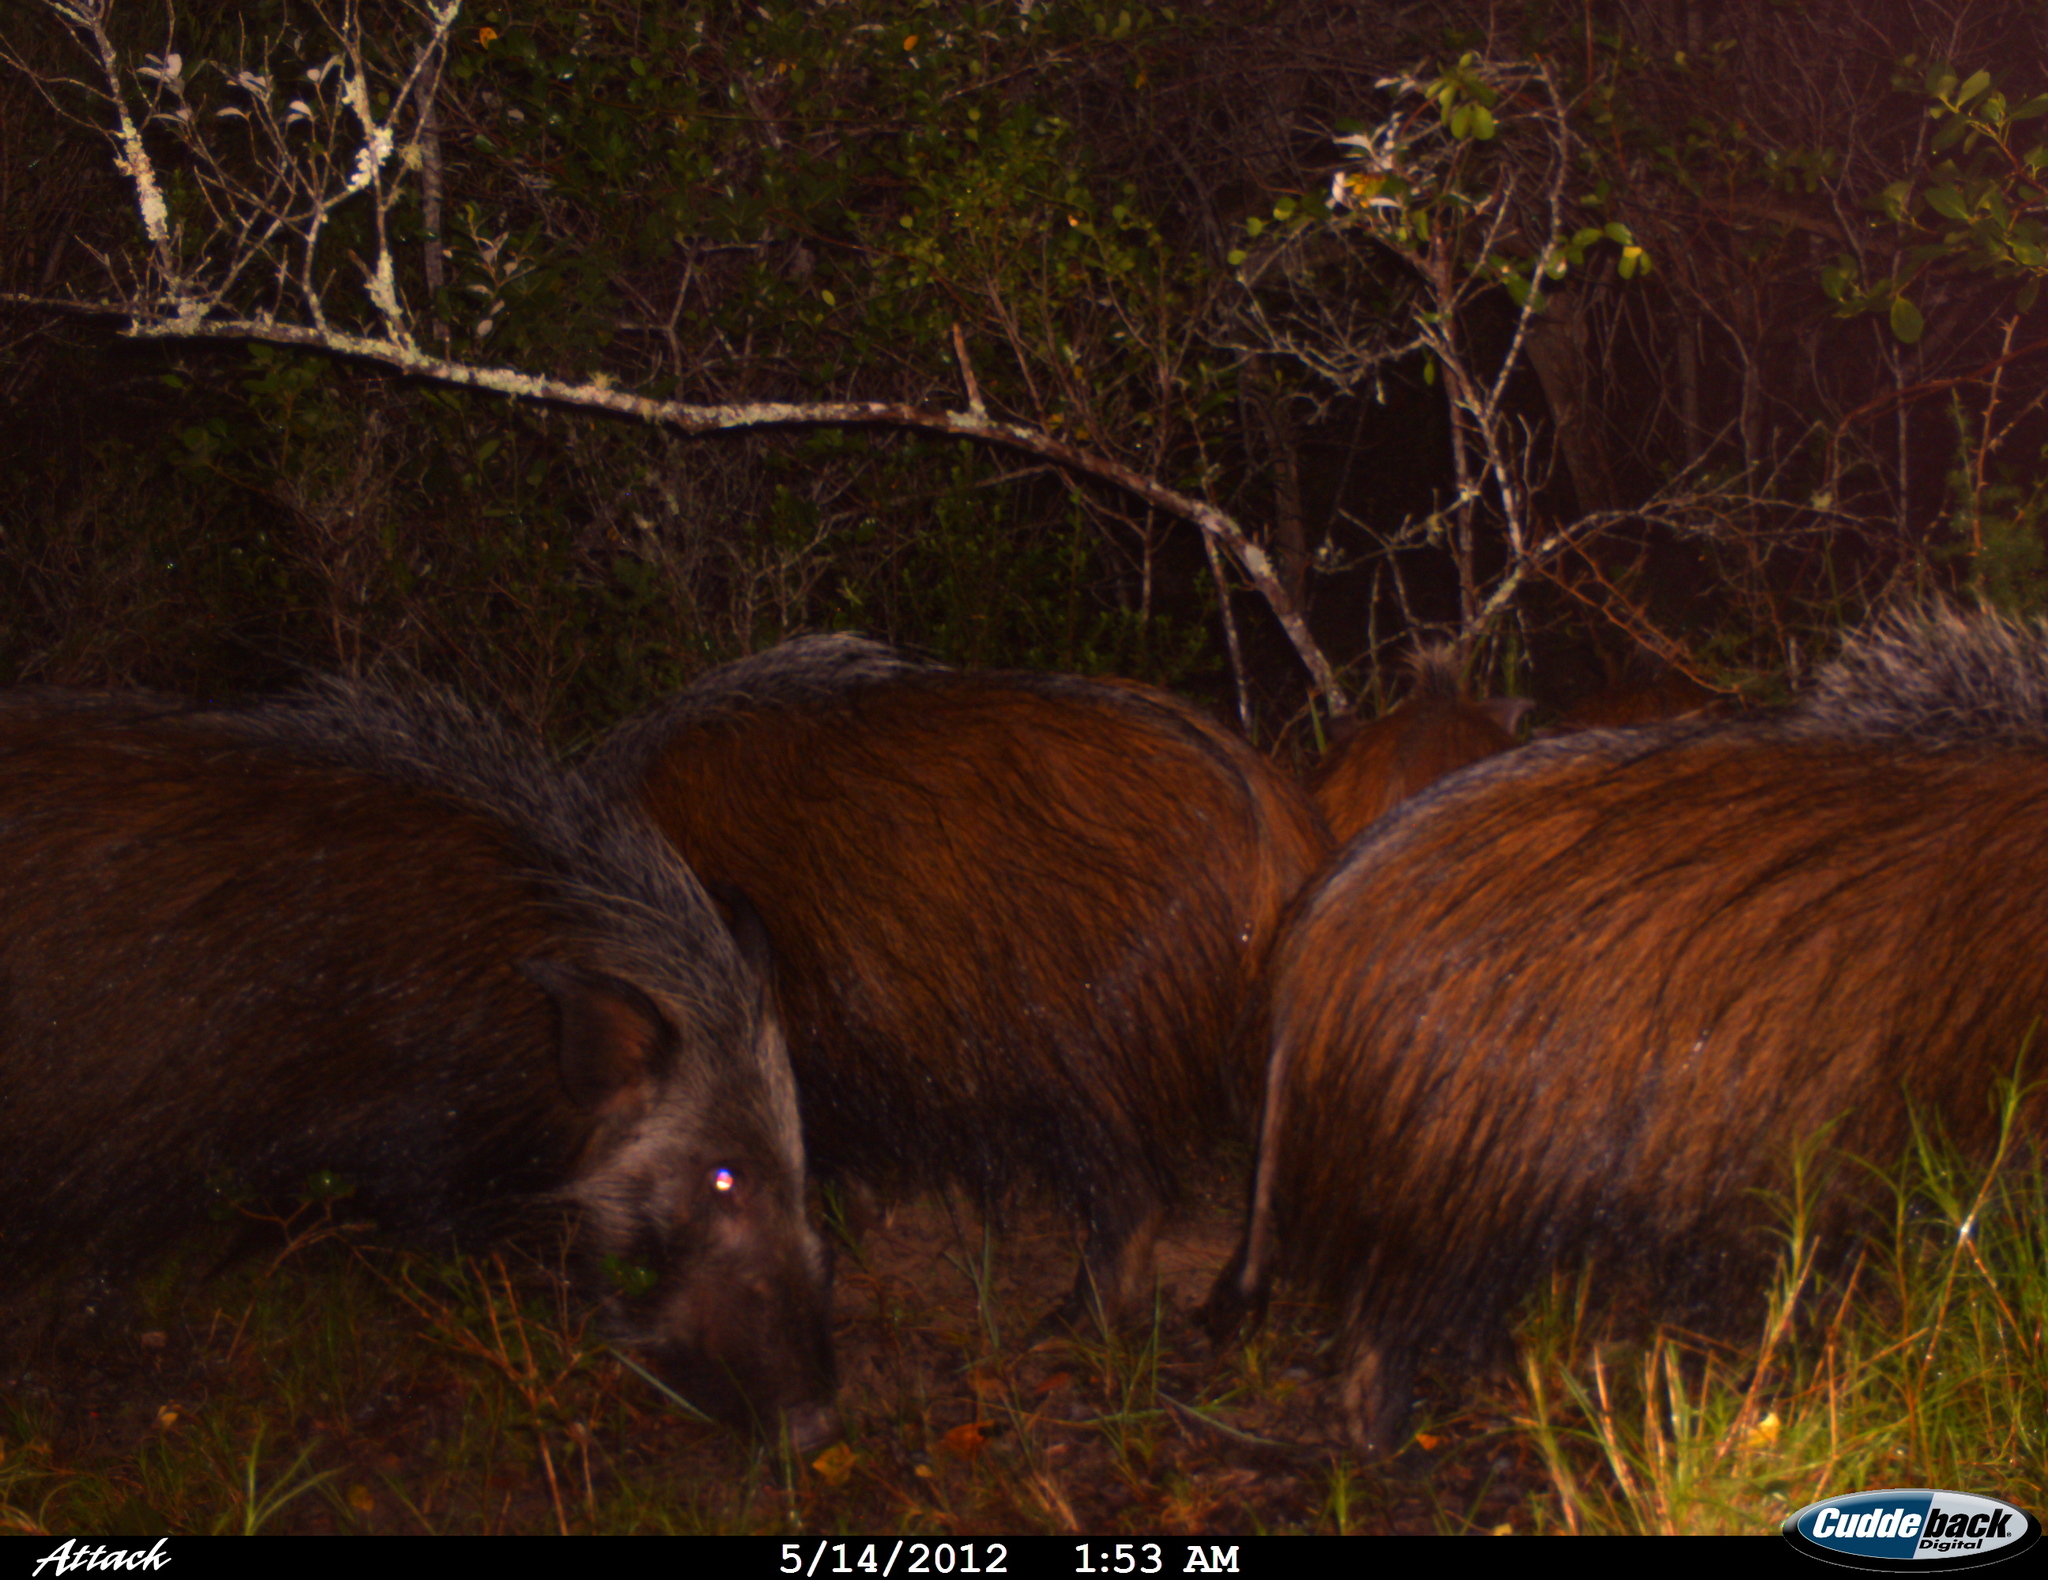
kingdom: Animalia
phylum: Chordata
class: Mammalia
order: Artiodactyla
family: Suidae
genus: Potamochoerus
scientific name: Potamochoerus larvatus
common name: Bushpig
